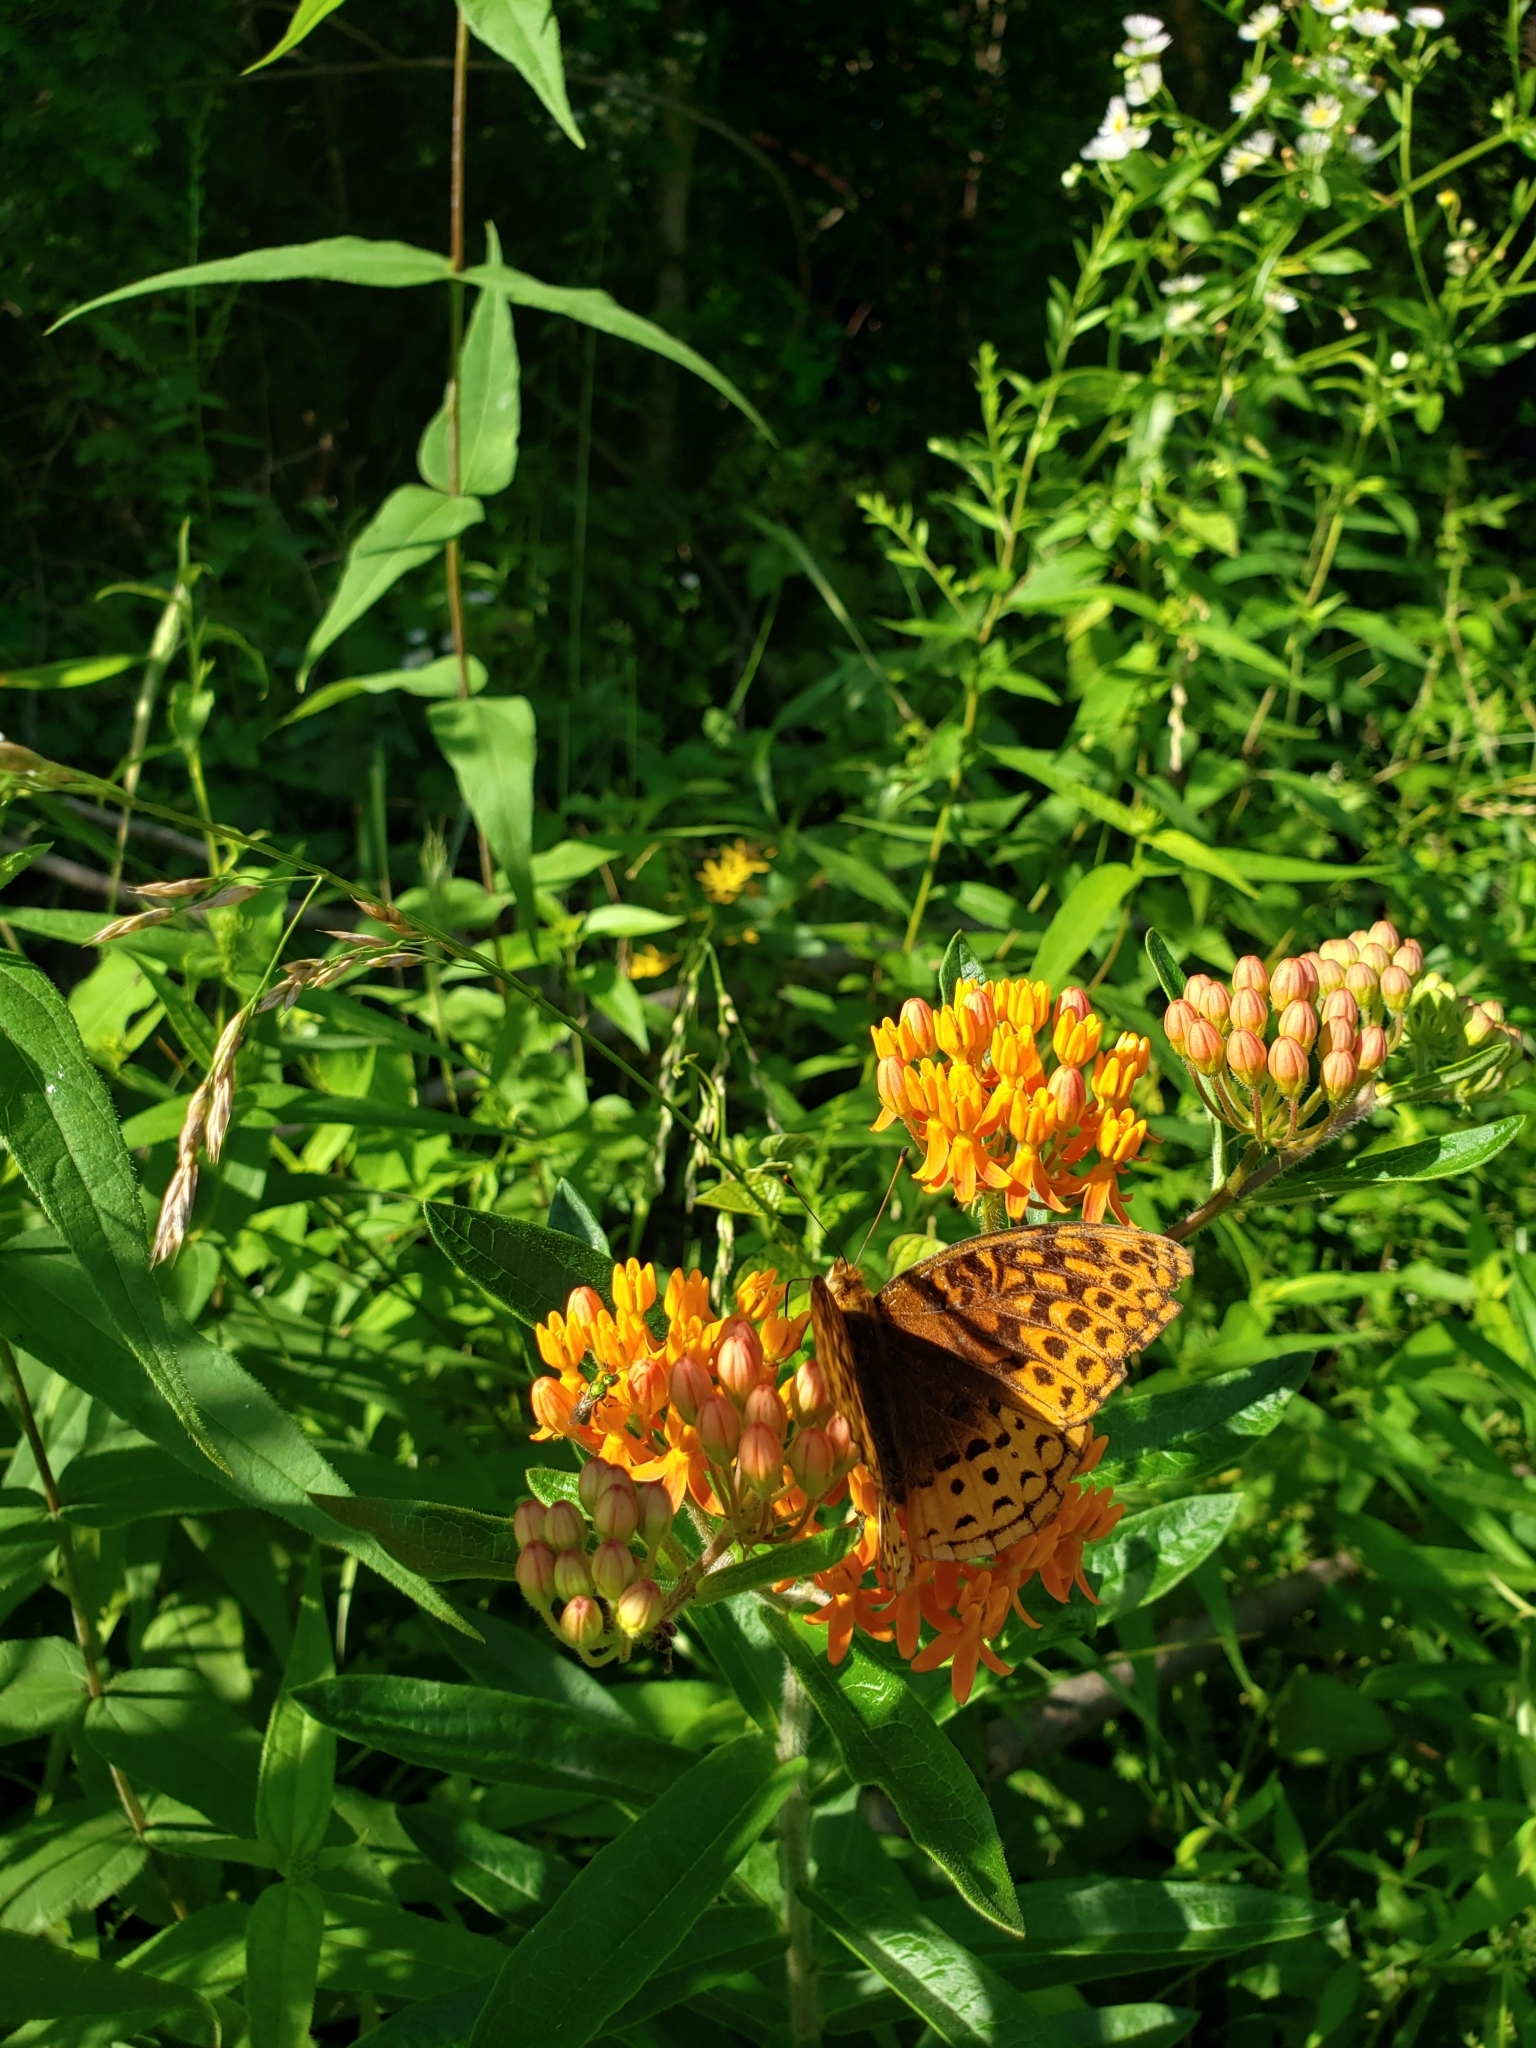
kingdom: Plantae
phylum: Tracheophyta
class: Magnoliopsida
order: Gentianales
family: Apocynaceae
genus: Asclepias
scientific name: Asclepias tuberosa
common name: Butterfly milkweed
